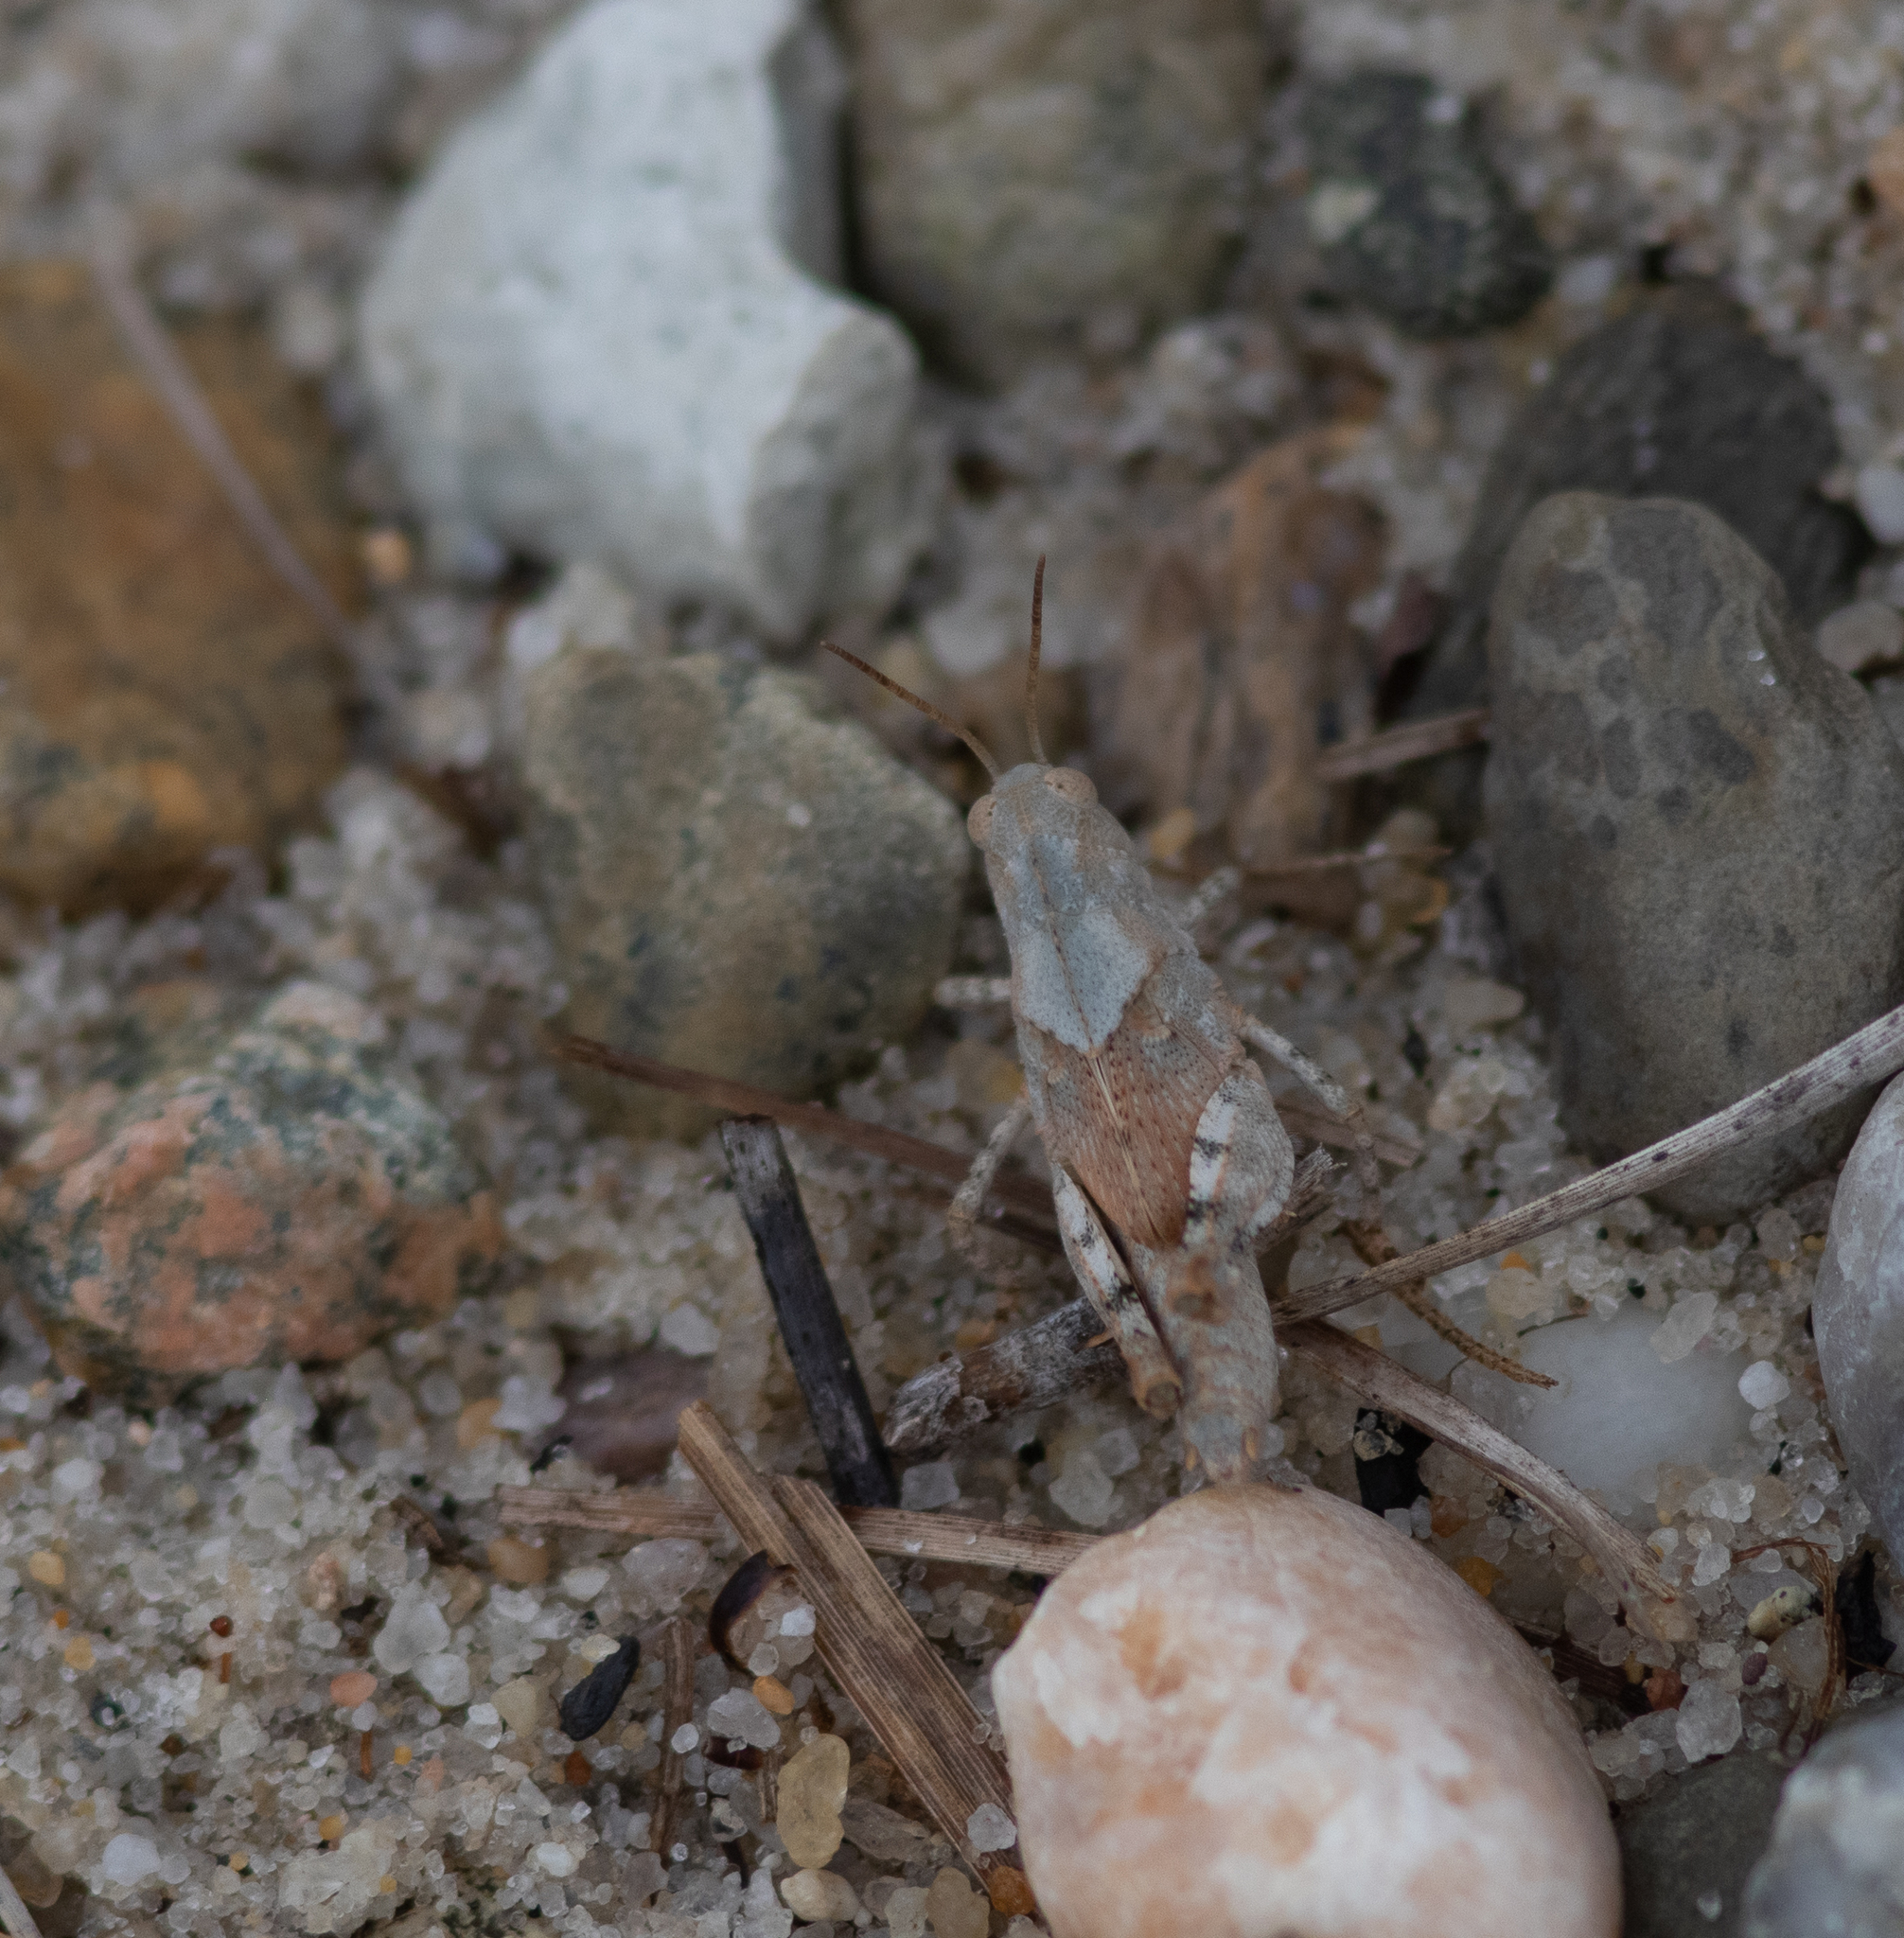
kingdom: Animalia
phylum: Arthropoda
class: Insecta
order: Orthoptera
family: Acrididae
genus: Dissosteira
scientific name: Dissosteira carolina
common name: Carolina grasshopper
